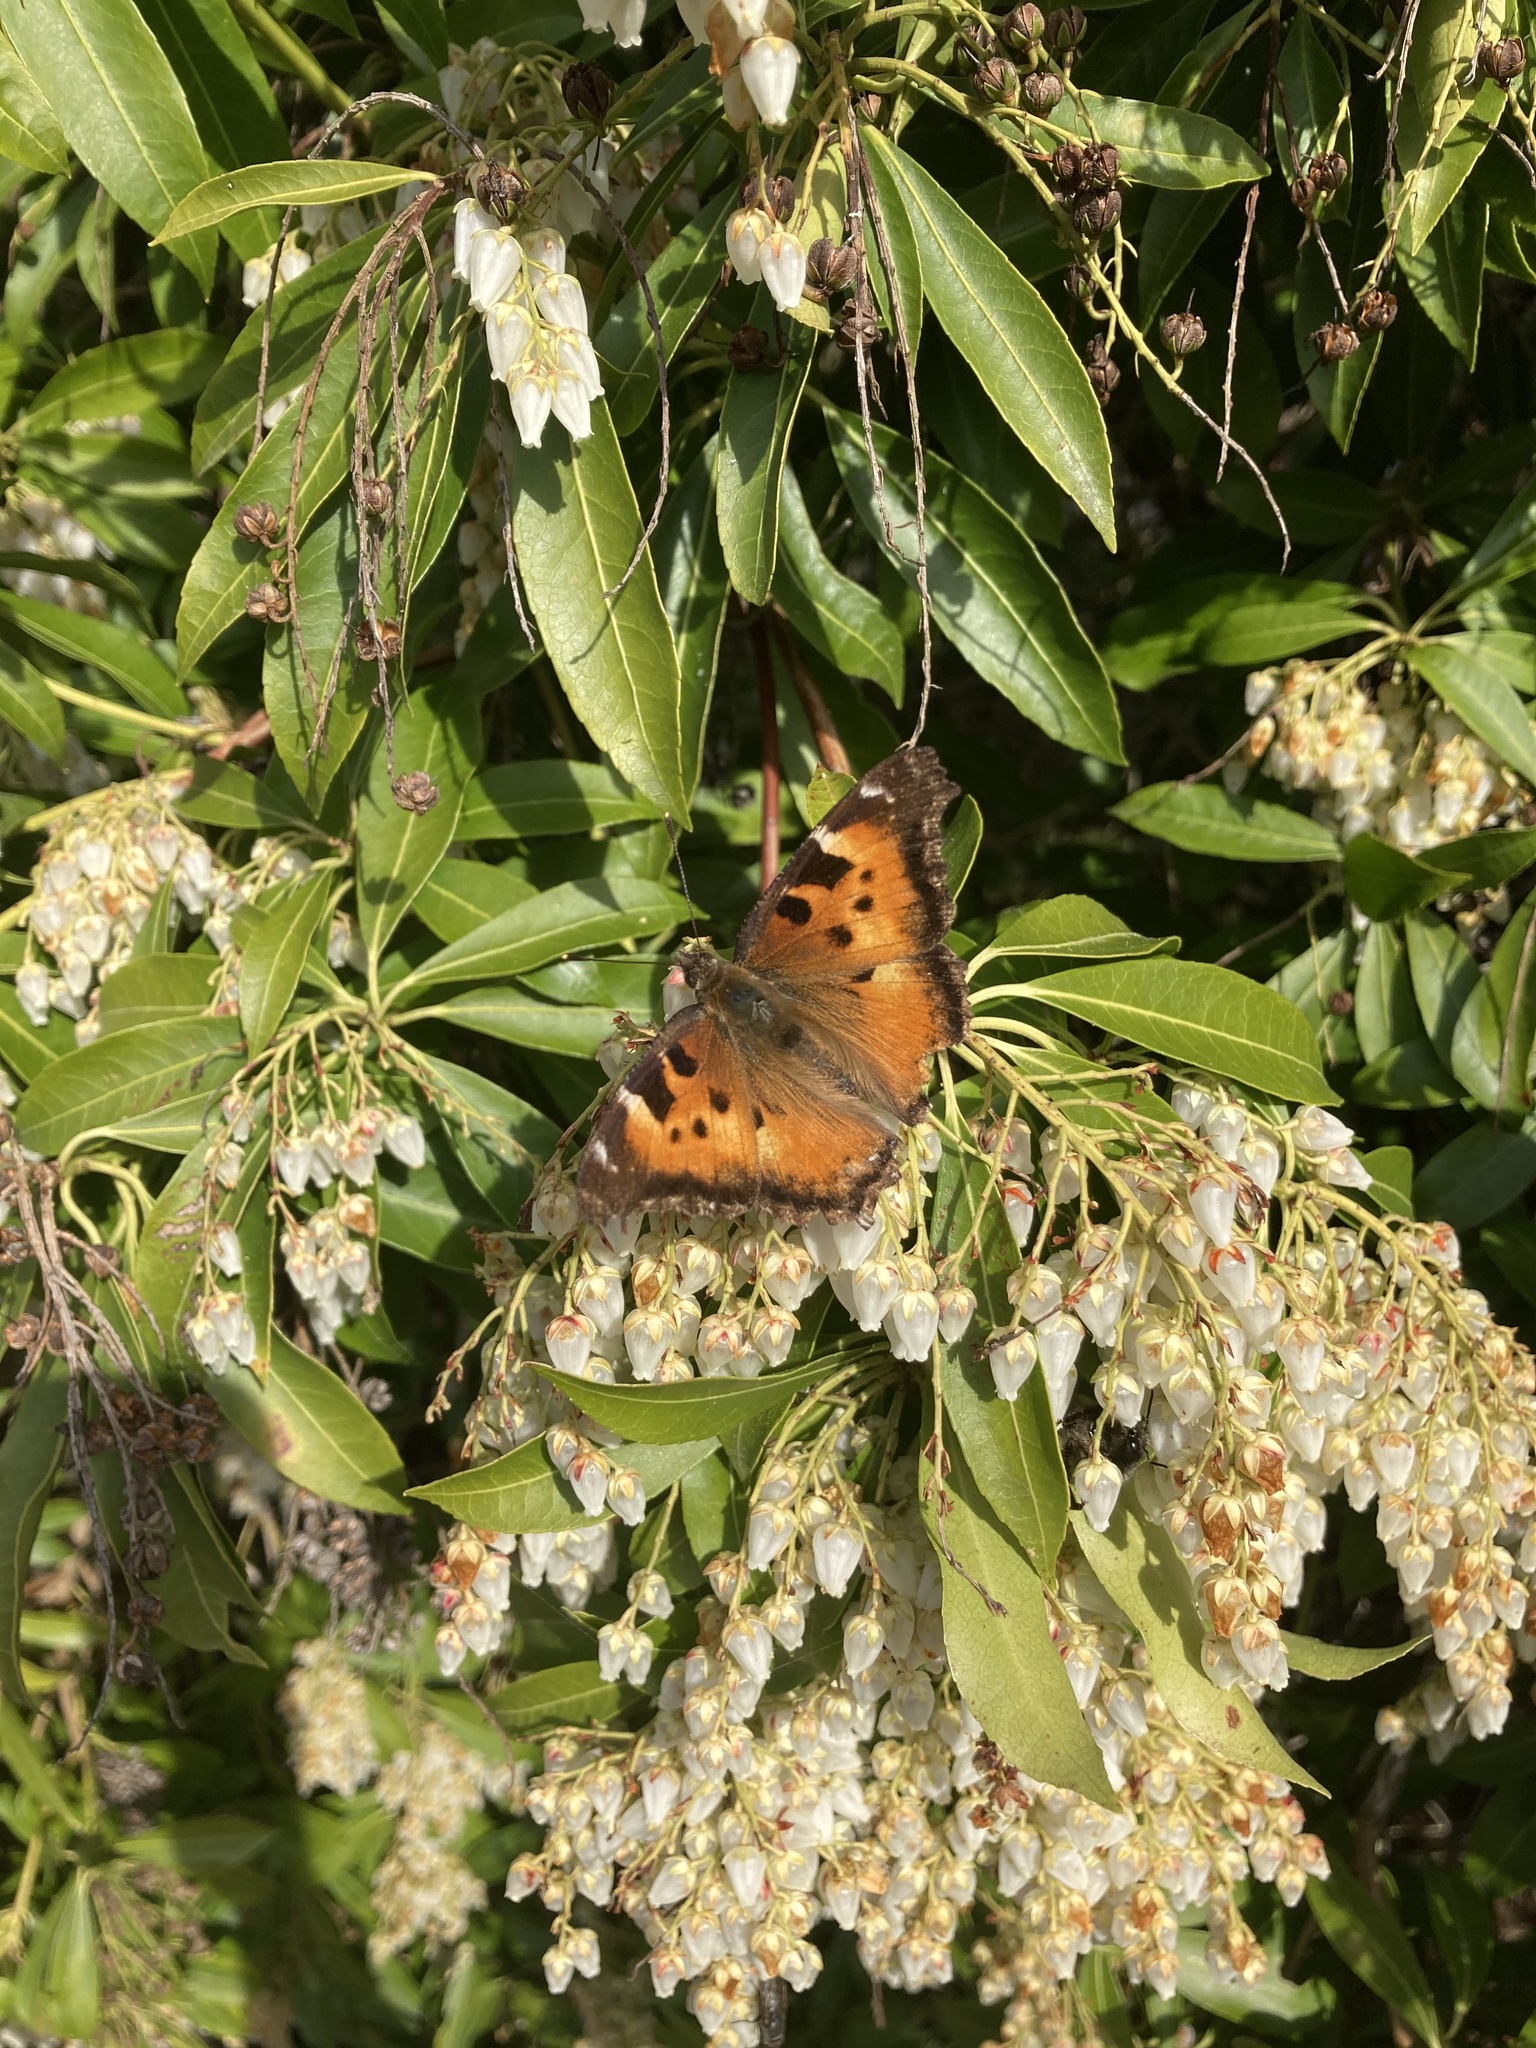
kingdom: Animalia
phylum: Arthropoda
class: Insecta
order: Lepidoptera
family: Nymphalidae
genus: Nymphalis
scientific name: Nymphalis californica
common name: California tortoiseshell
